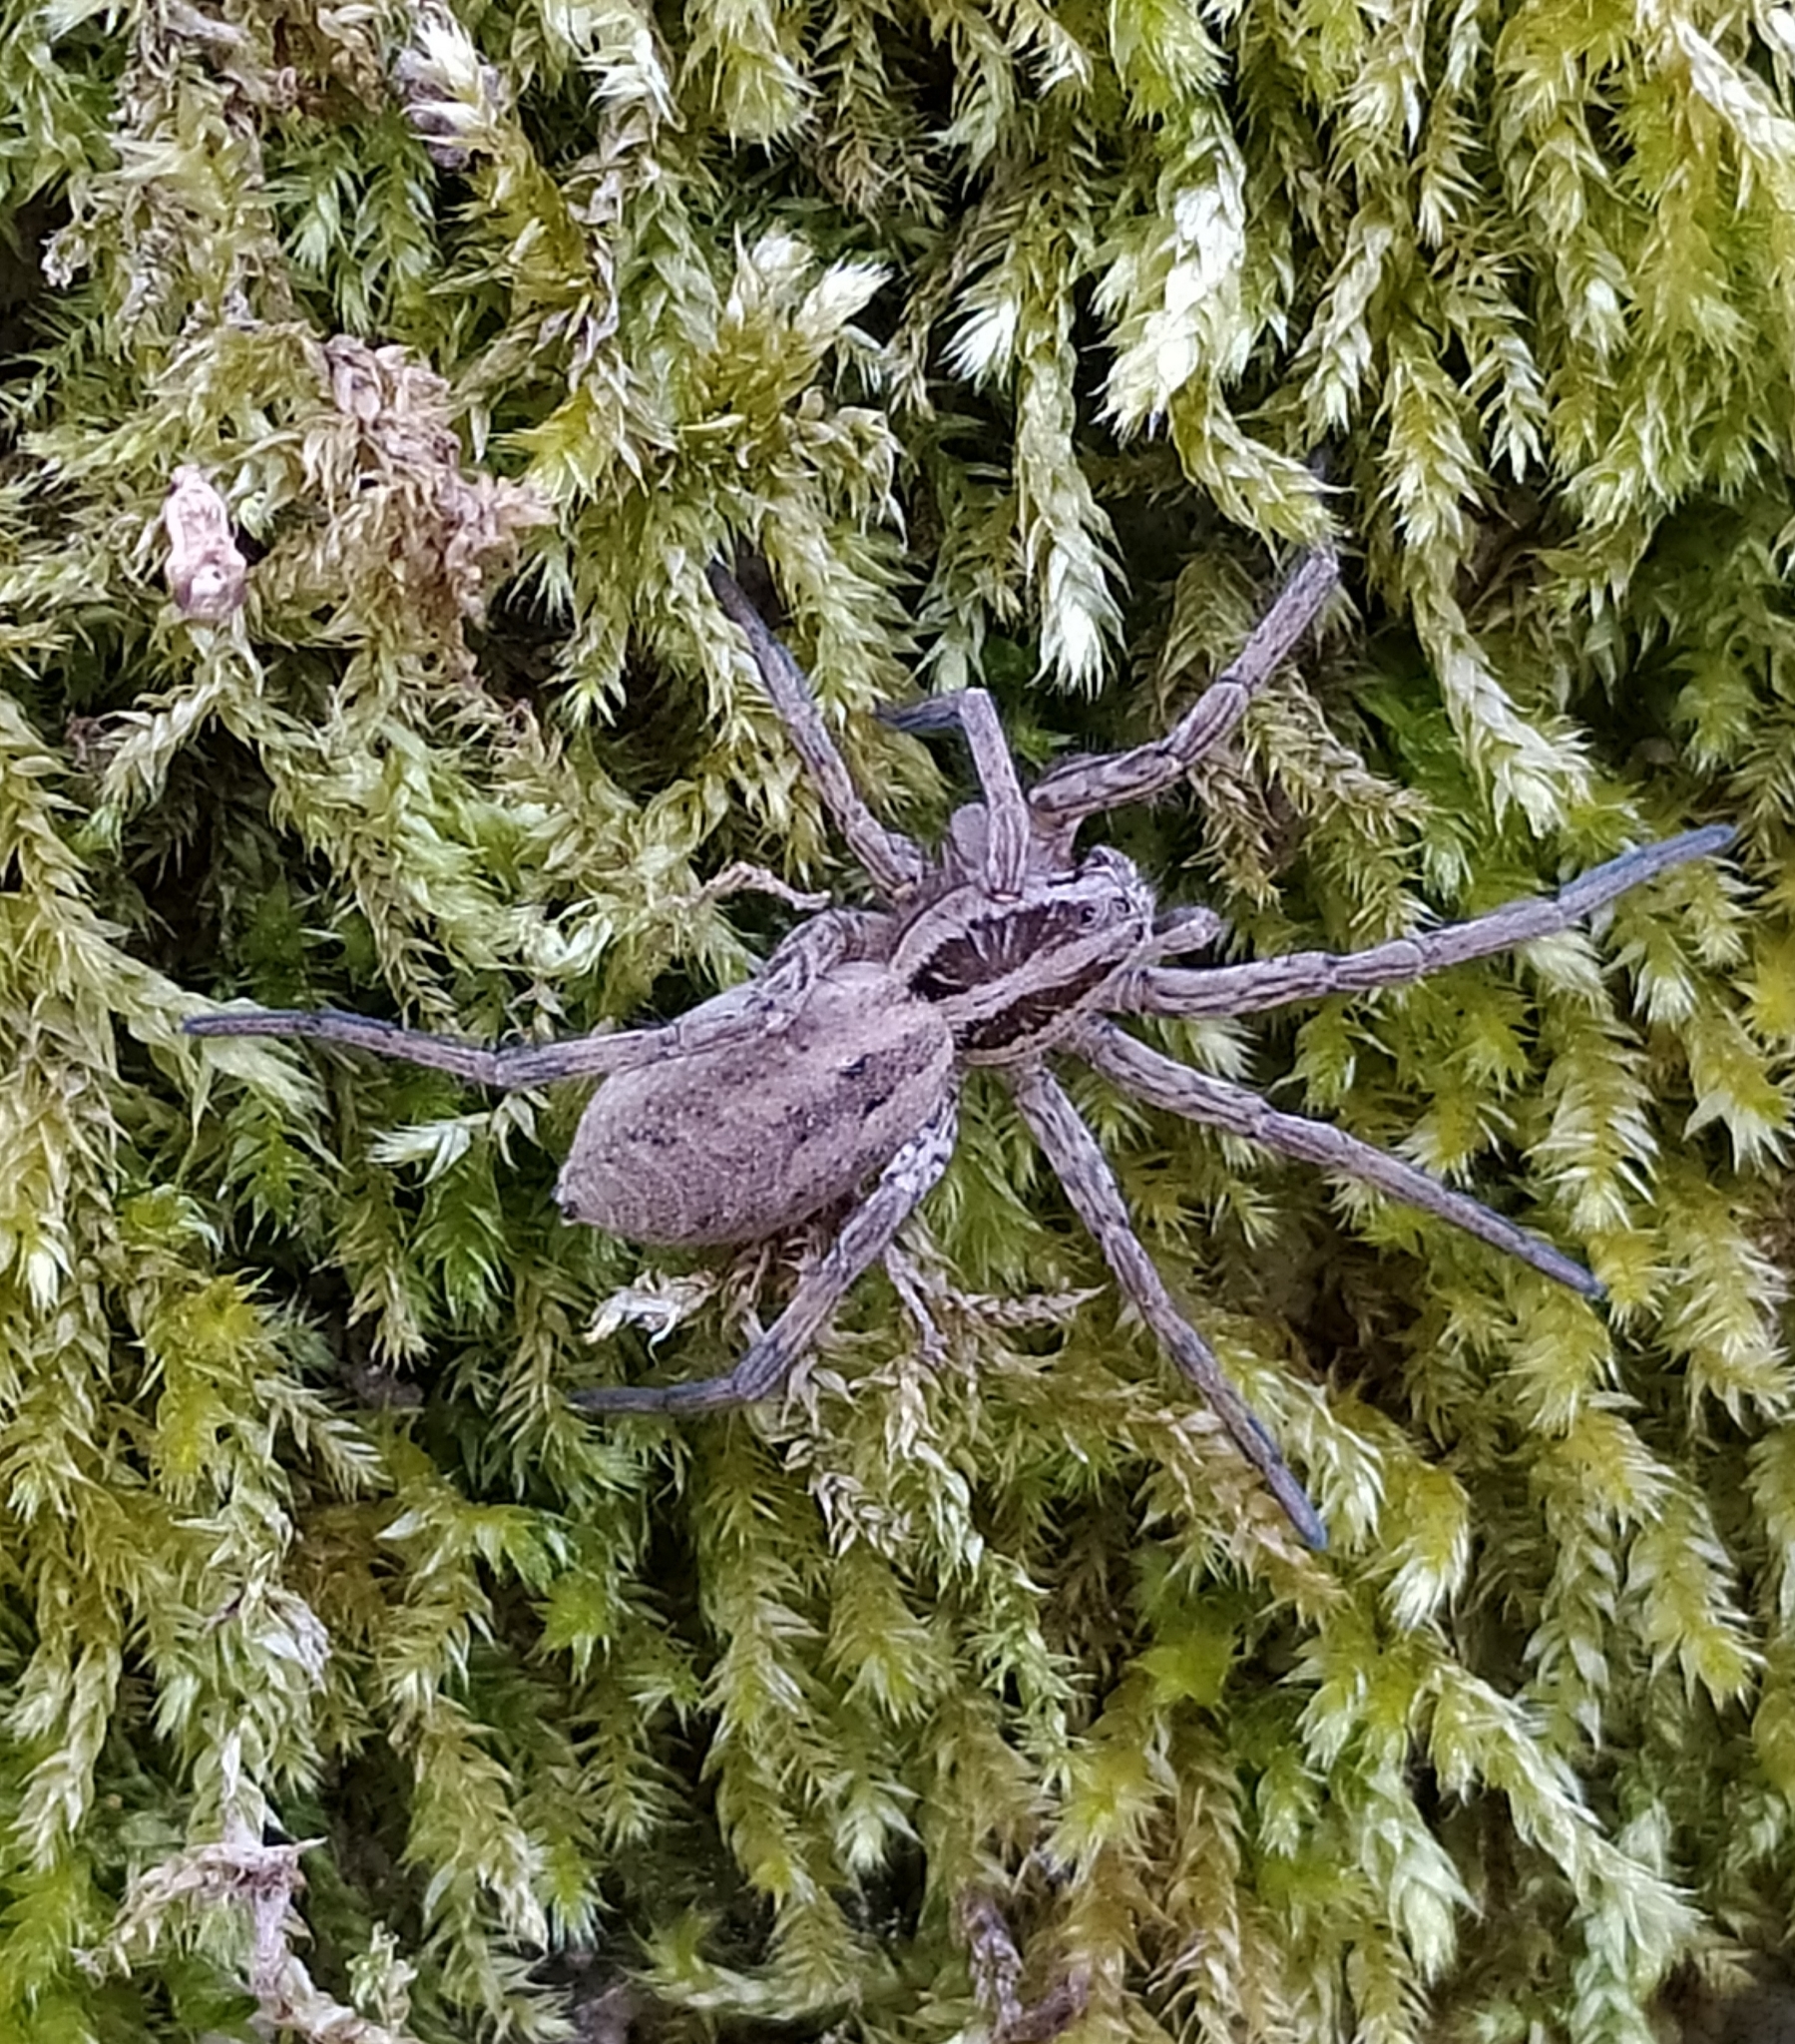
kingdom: Animalia
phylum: Arthropoda
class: Arachnida
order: Araneae
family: Lycosidae
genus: Hogna
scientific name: Hogna radiata
